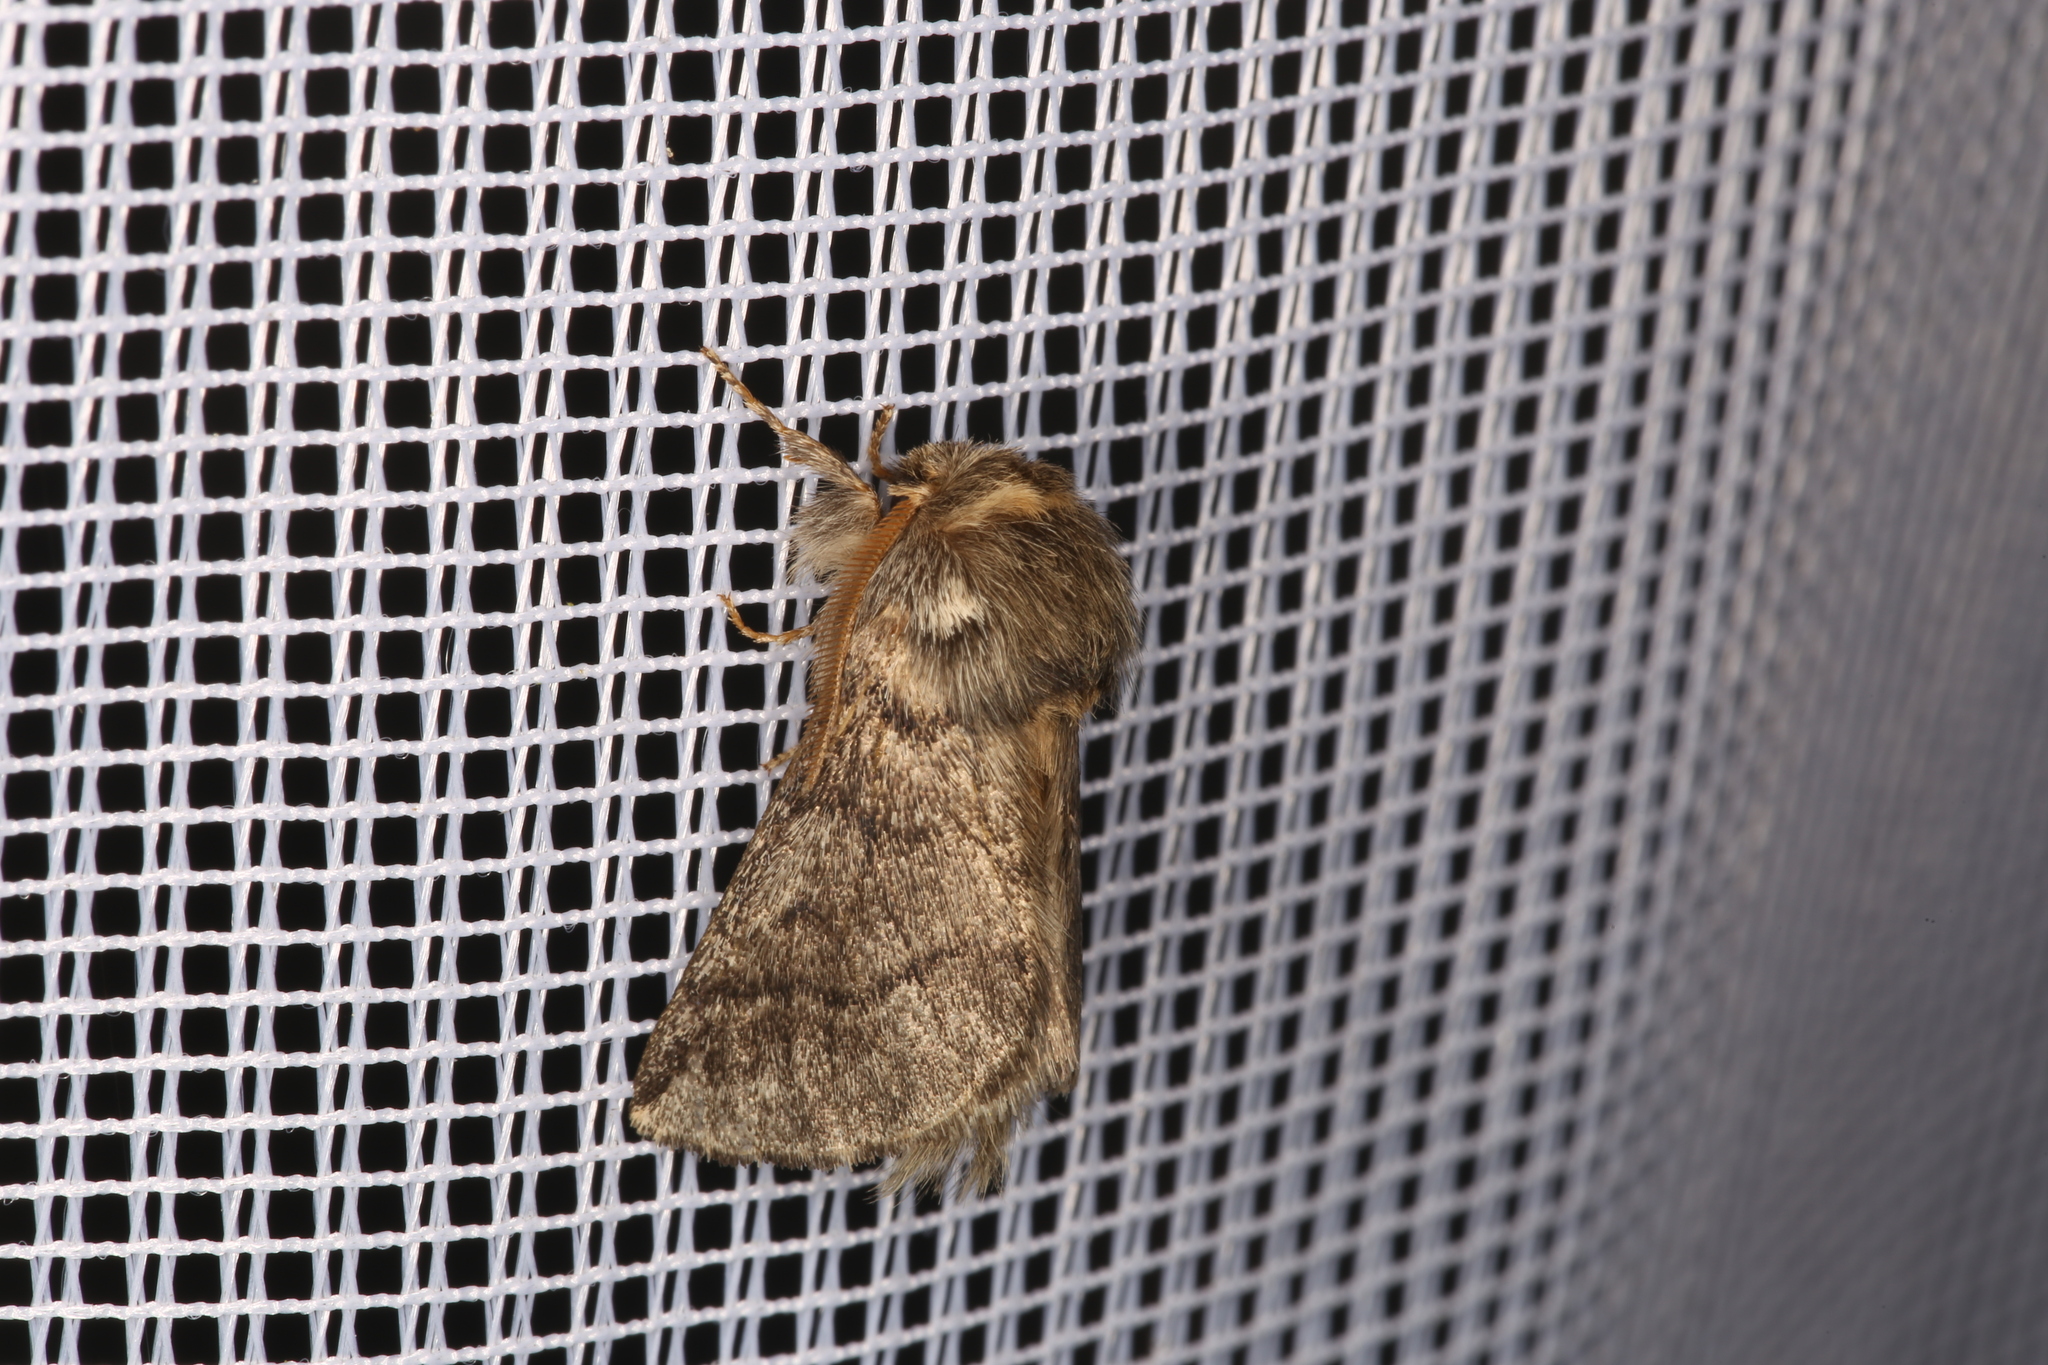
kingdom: Animalia
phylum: Arthropoda
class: Insecta
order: Lepidoptera
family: Notodontidae
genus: Thaumetopoea
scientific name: Thaumetopoea processionea
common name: Oak processionea
